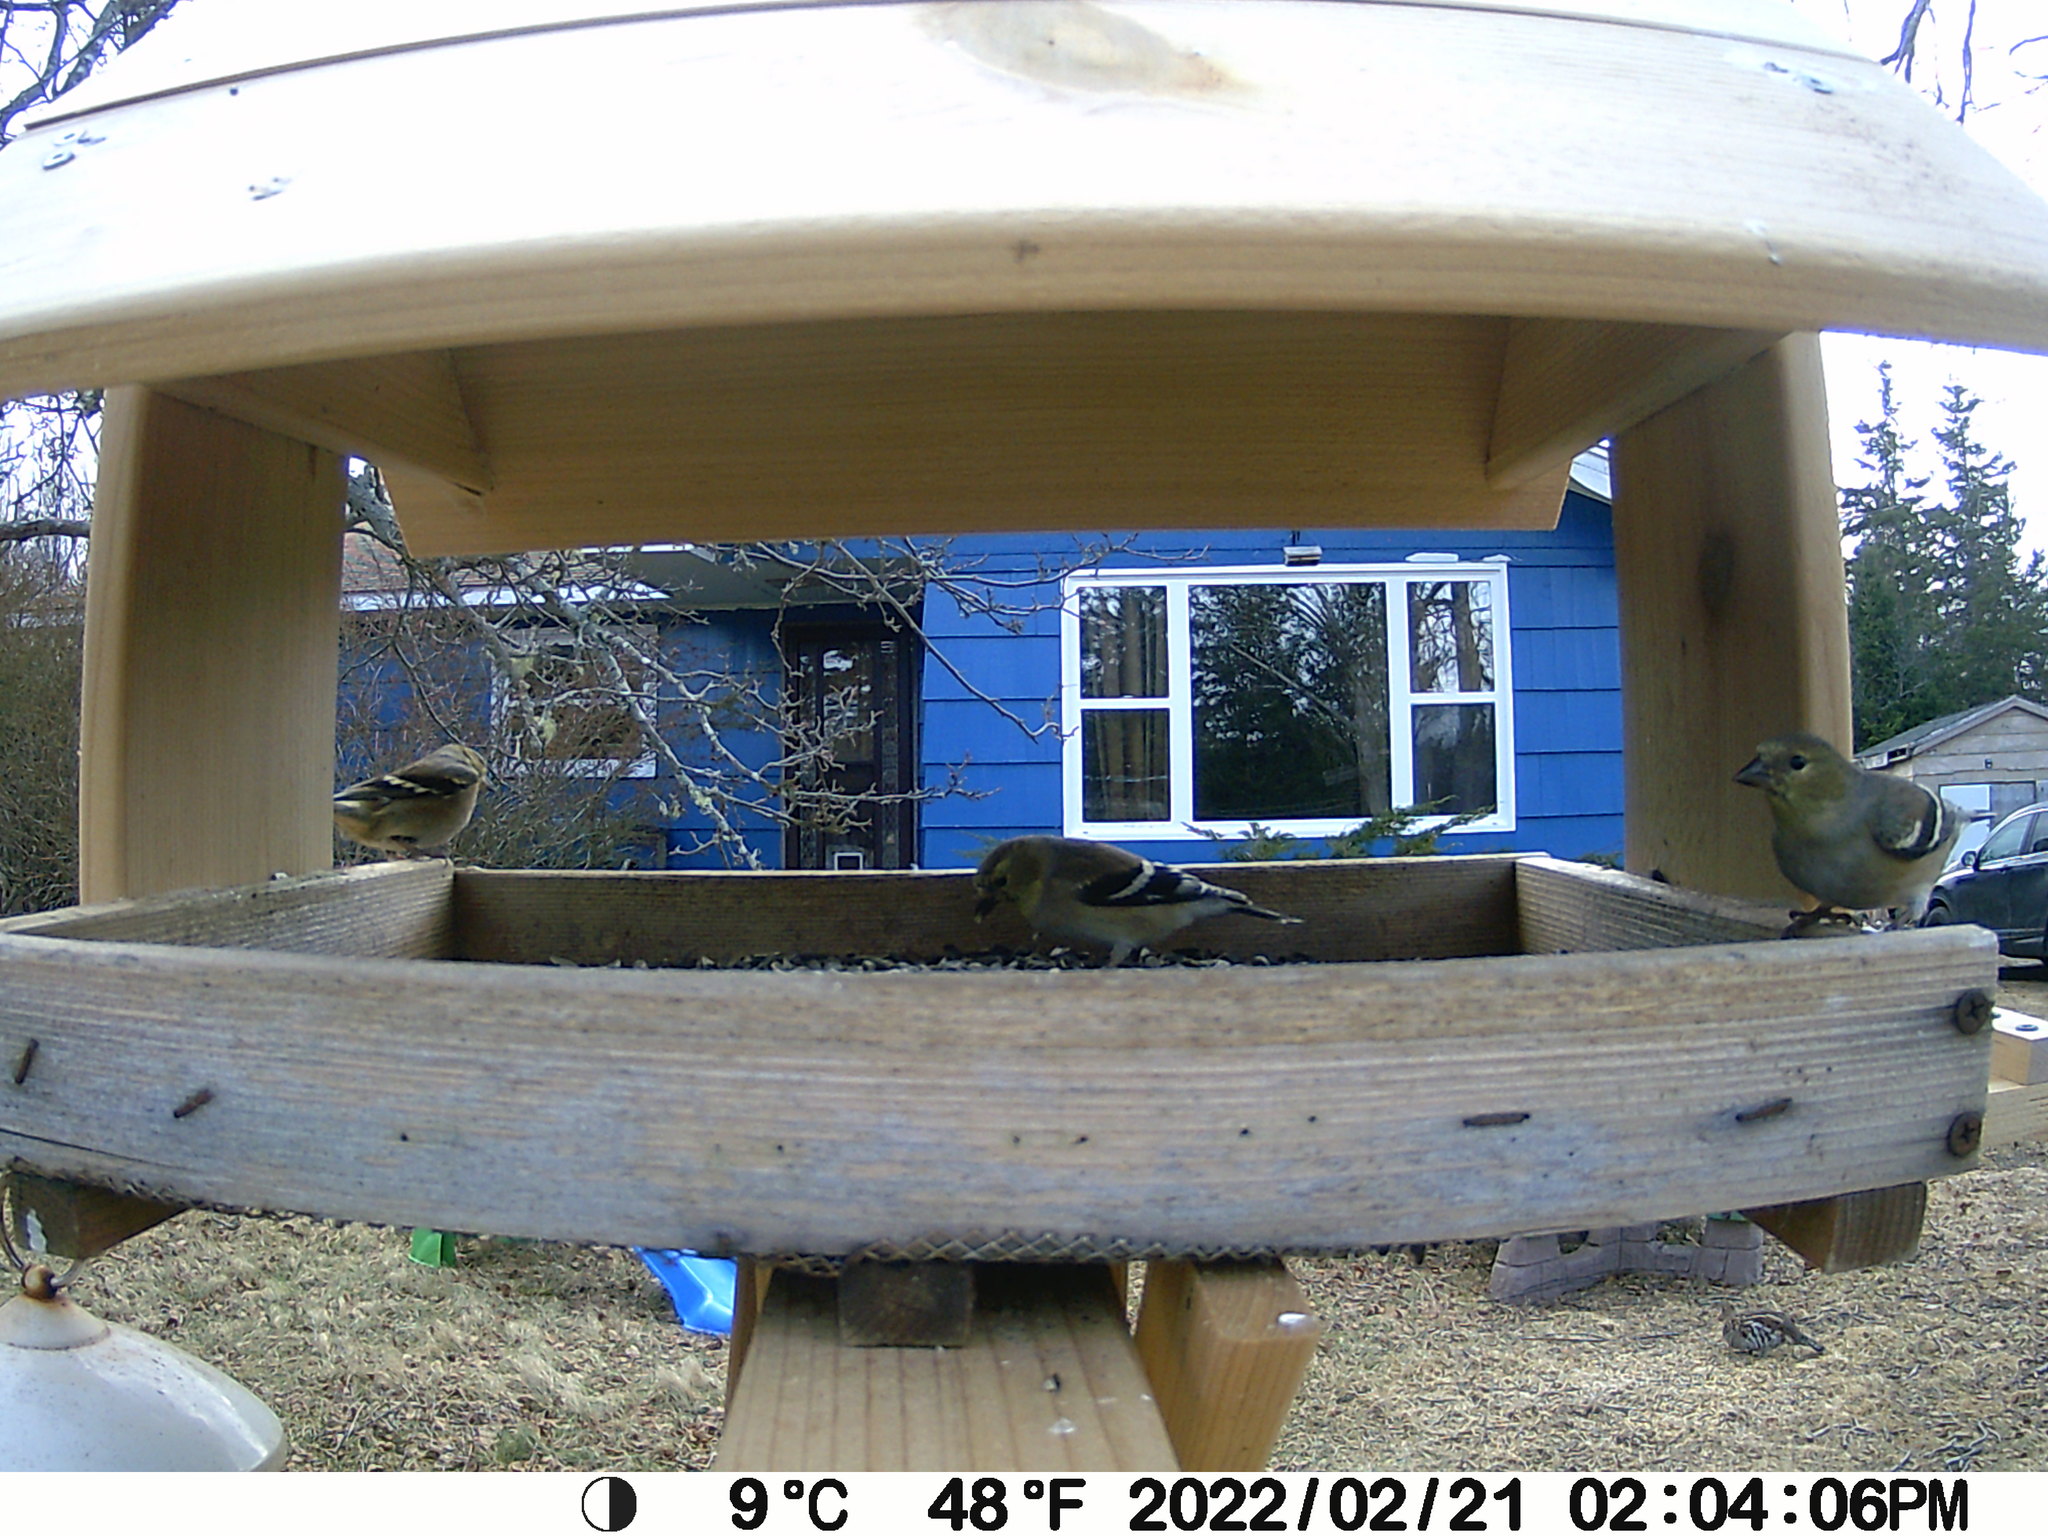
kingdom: Animalia
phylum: Chordata
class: Aves
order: Galliformes
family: Phasianidae
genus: Bonasa
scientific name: Bonasa umbellus
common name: Ruffed grouse
